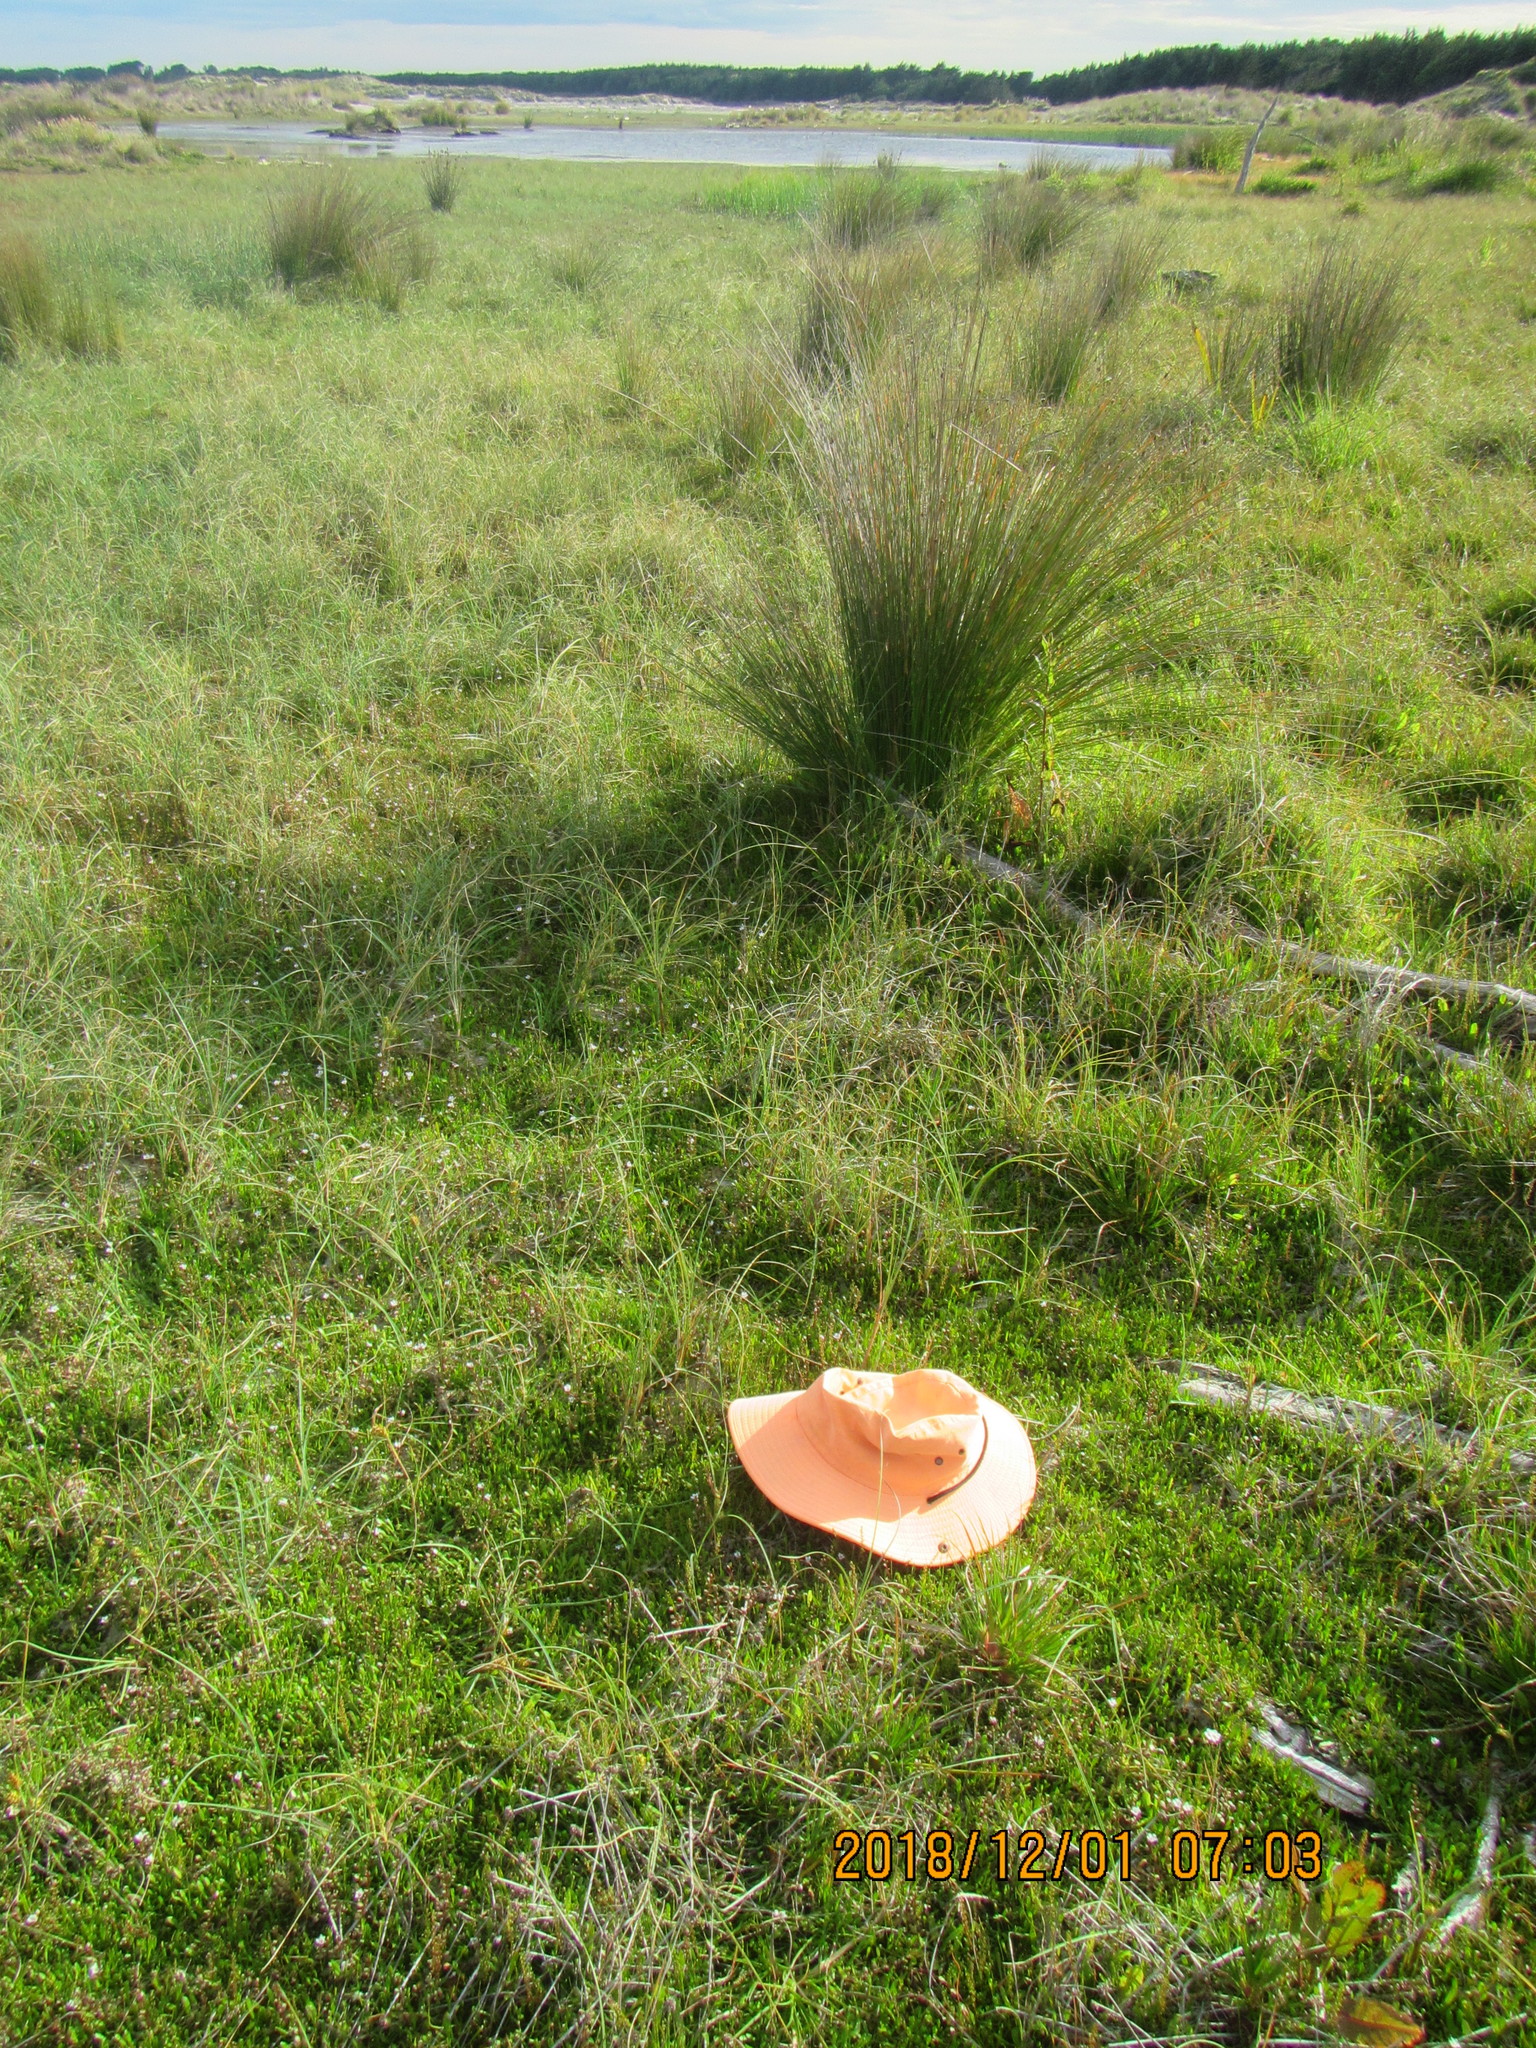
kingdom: Plantae
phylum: Tracheophyta
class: Magnoliopsida
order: Asterales
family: Goodeniaceae
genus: Goodenia
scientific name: Goodenia radicans
